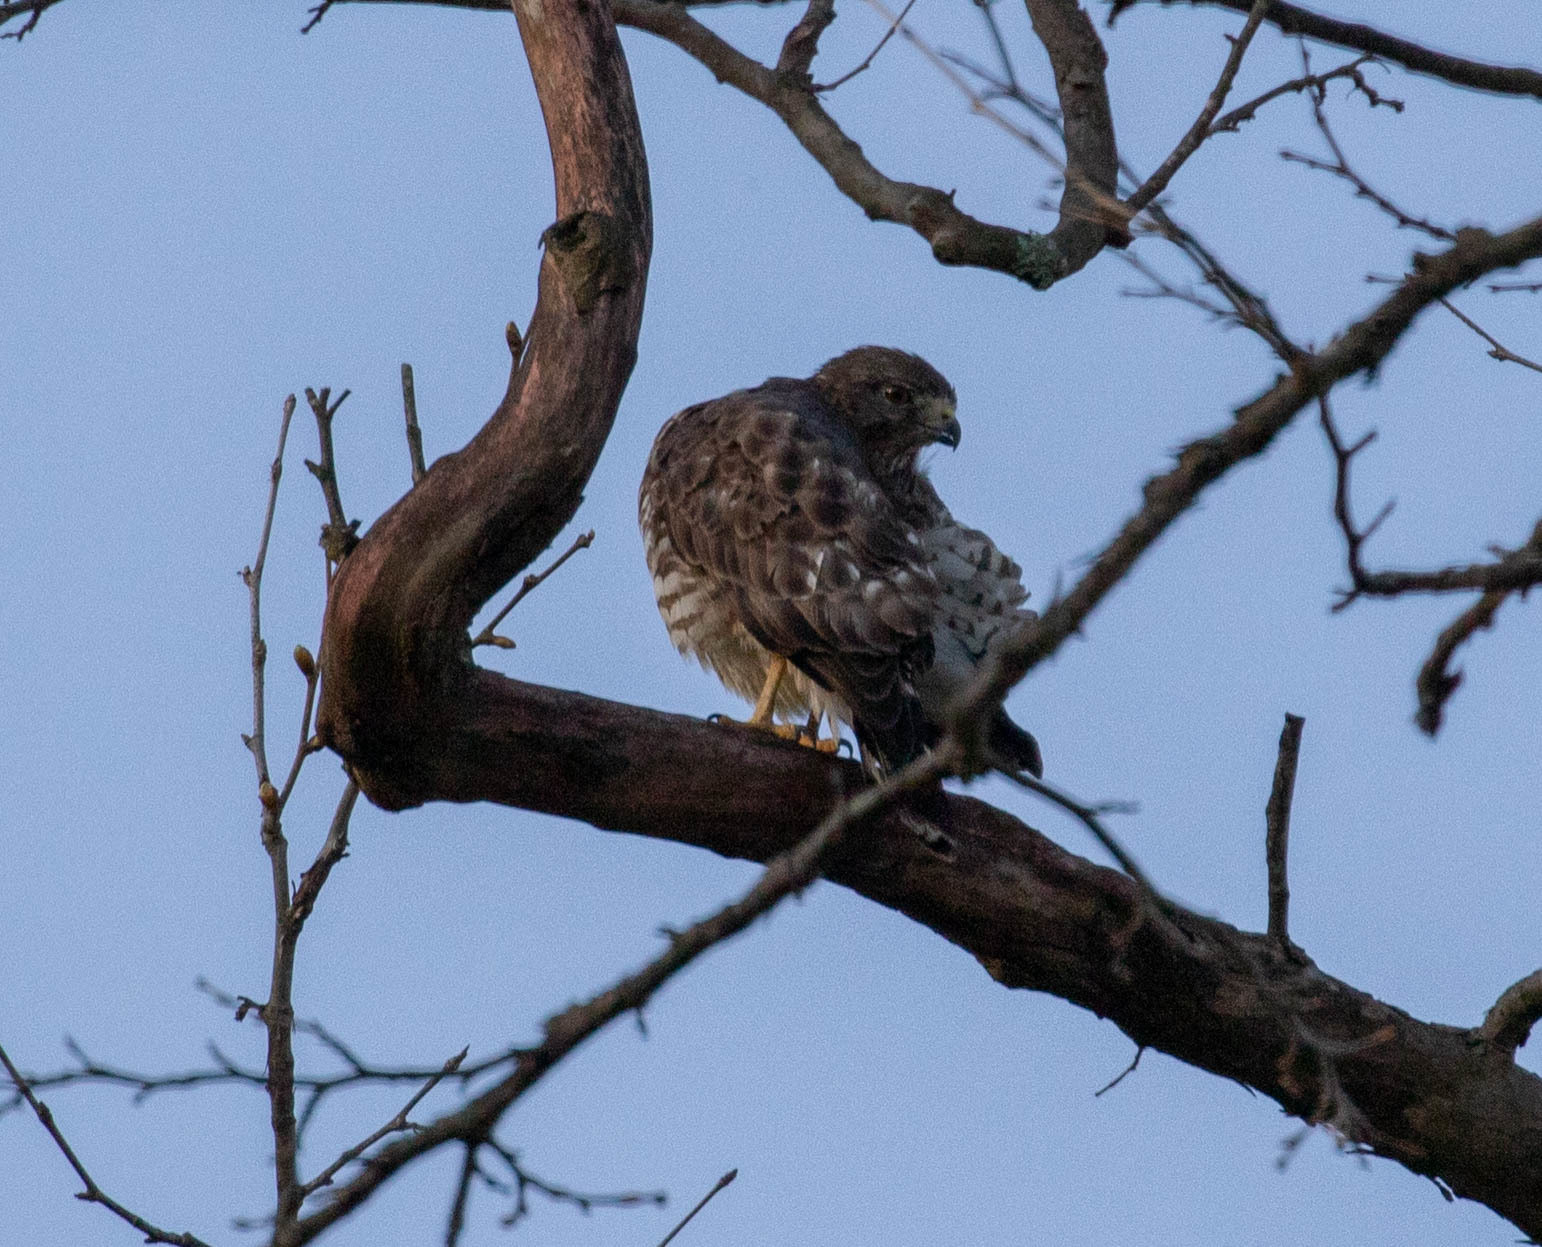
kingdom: Animalia
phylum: Chordata
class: Aves
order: Accipitriformes
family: Accipitridae
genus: Buteo
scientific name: Buteo platypterus
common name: Broad-winged hawk
